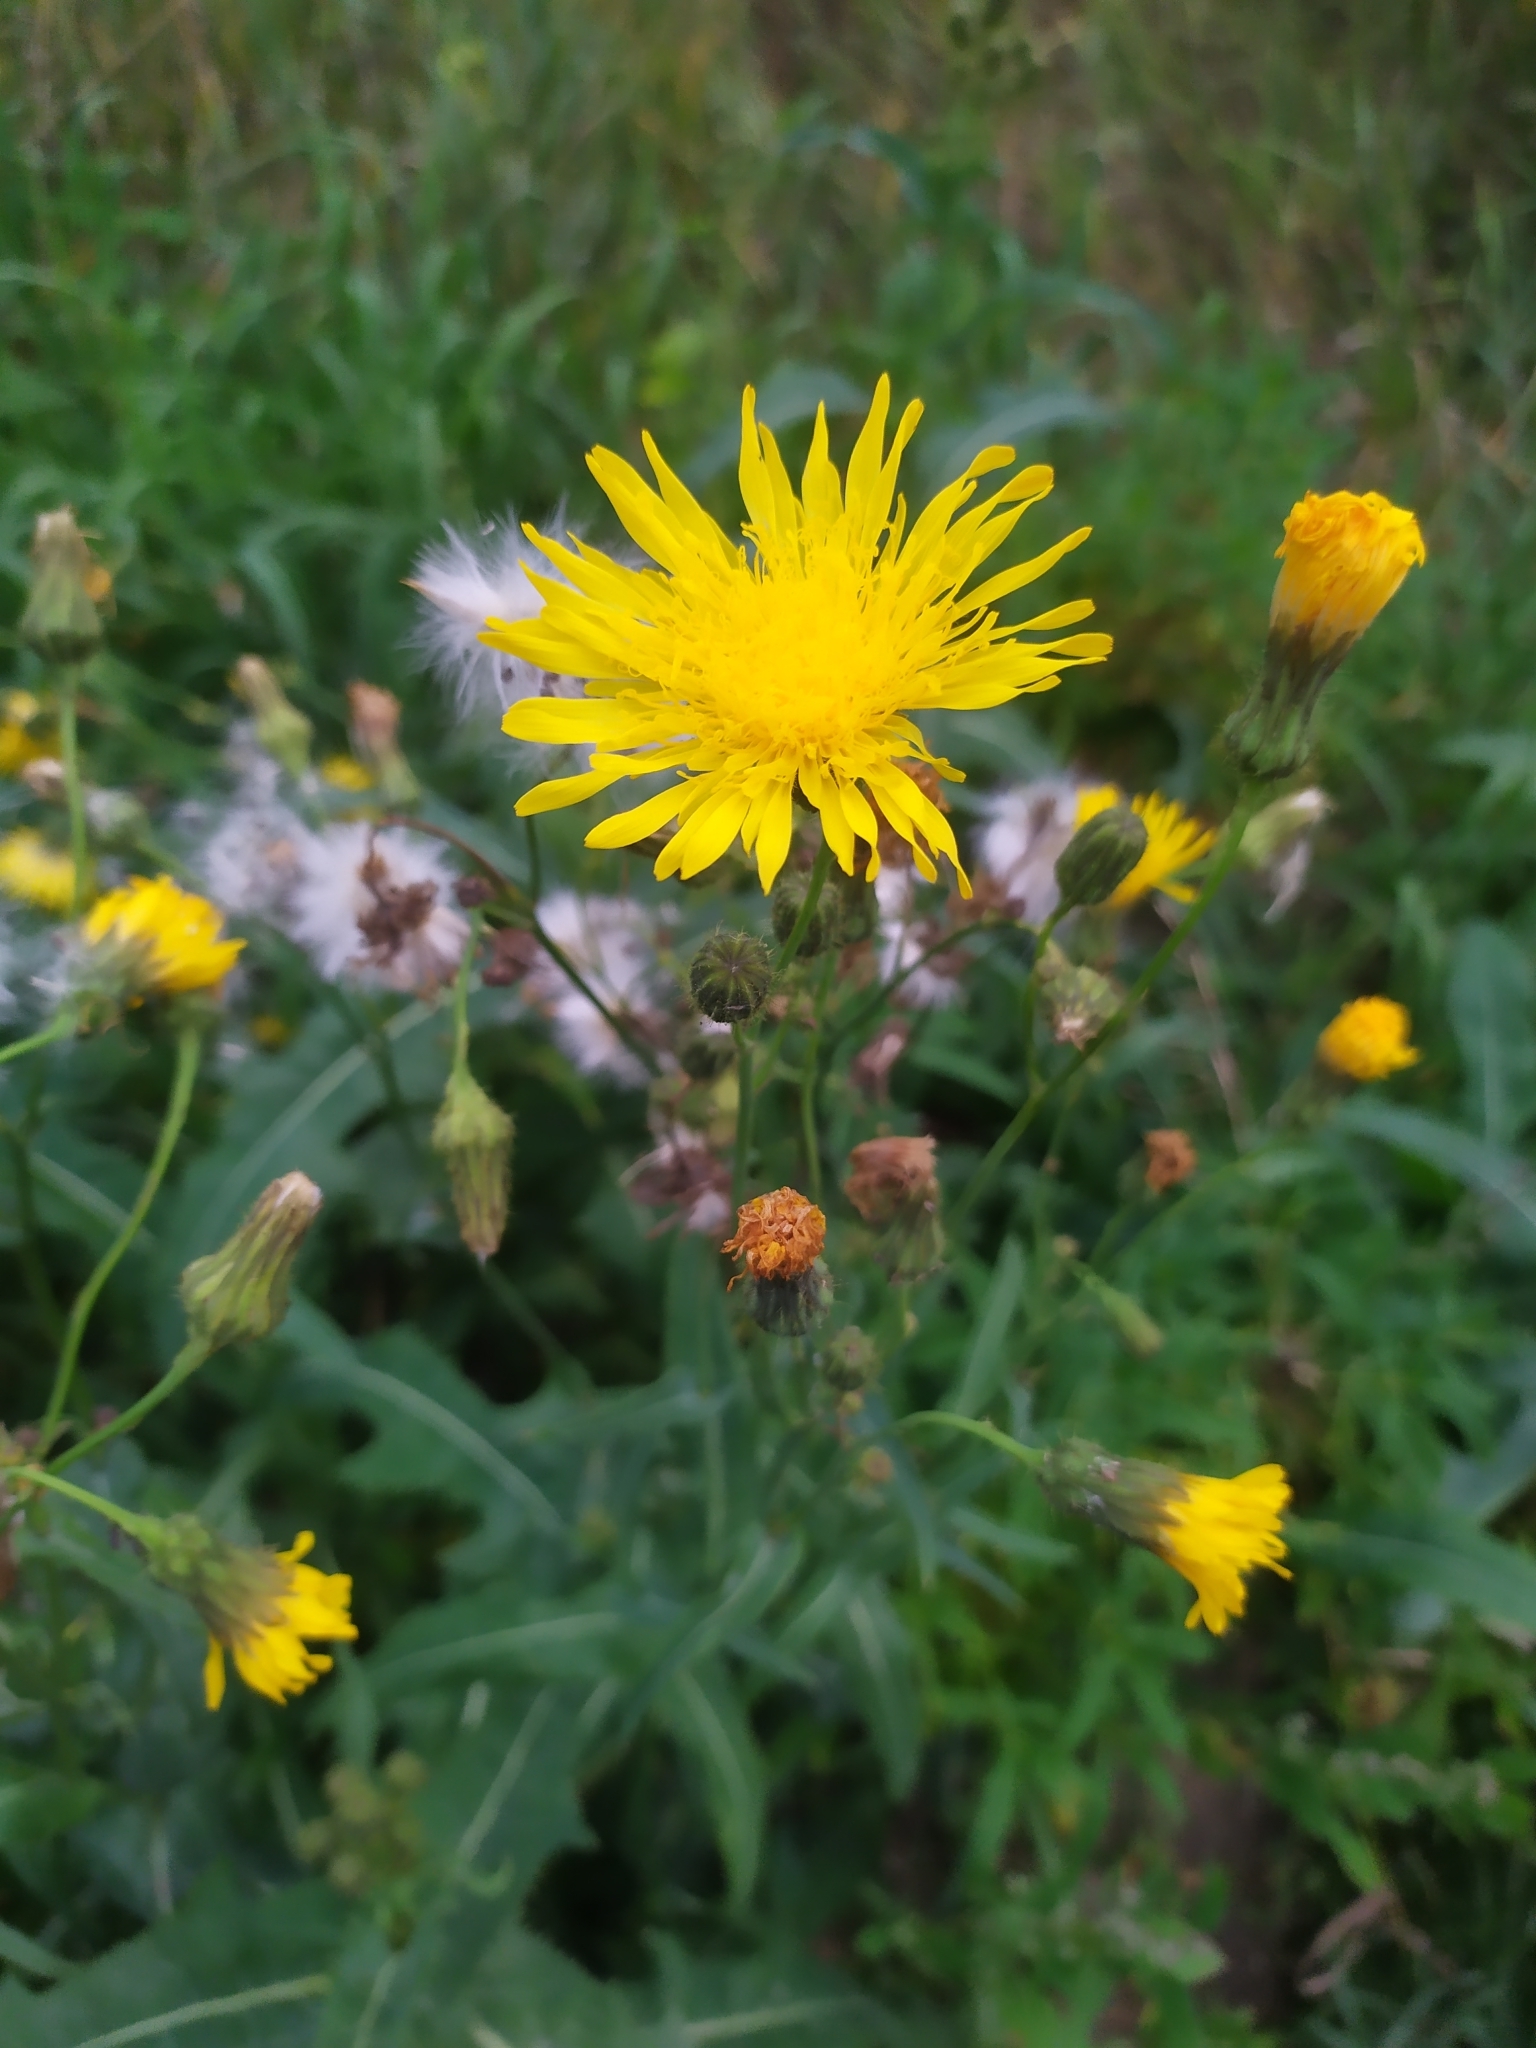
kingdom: Plantae
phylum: Tracheophyta
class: Magnoliopsida
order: Asterales
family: Asteraceae
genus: Sonchus
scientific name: Sonchus arvensis
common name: Perennial sow-thistle
